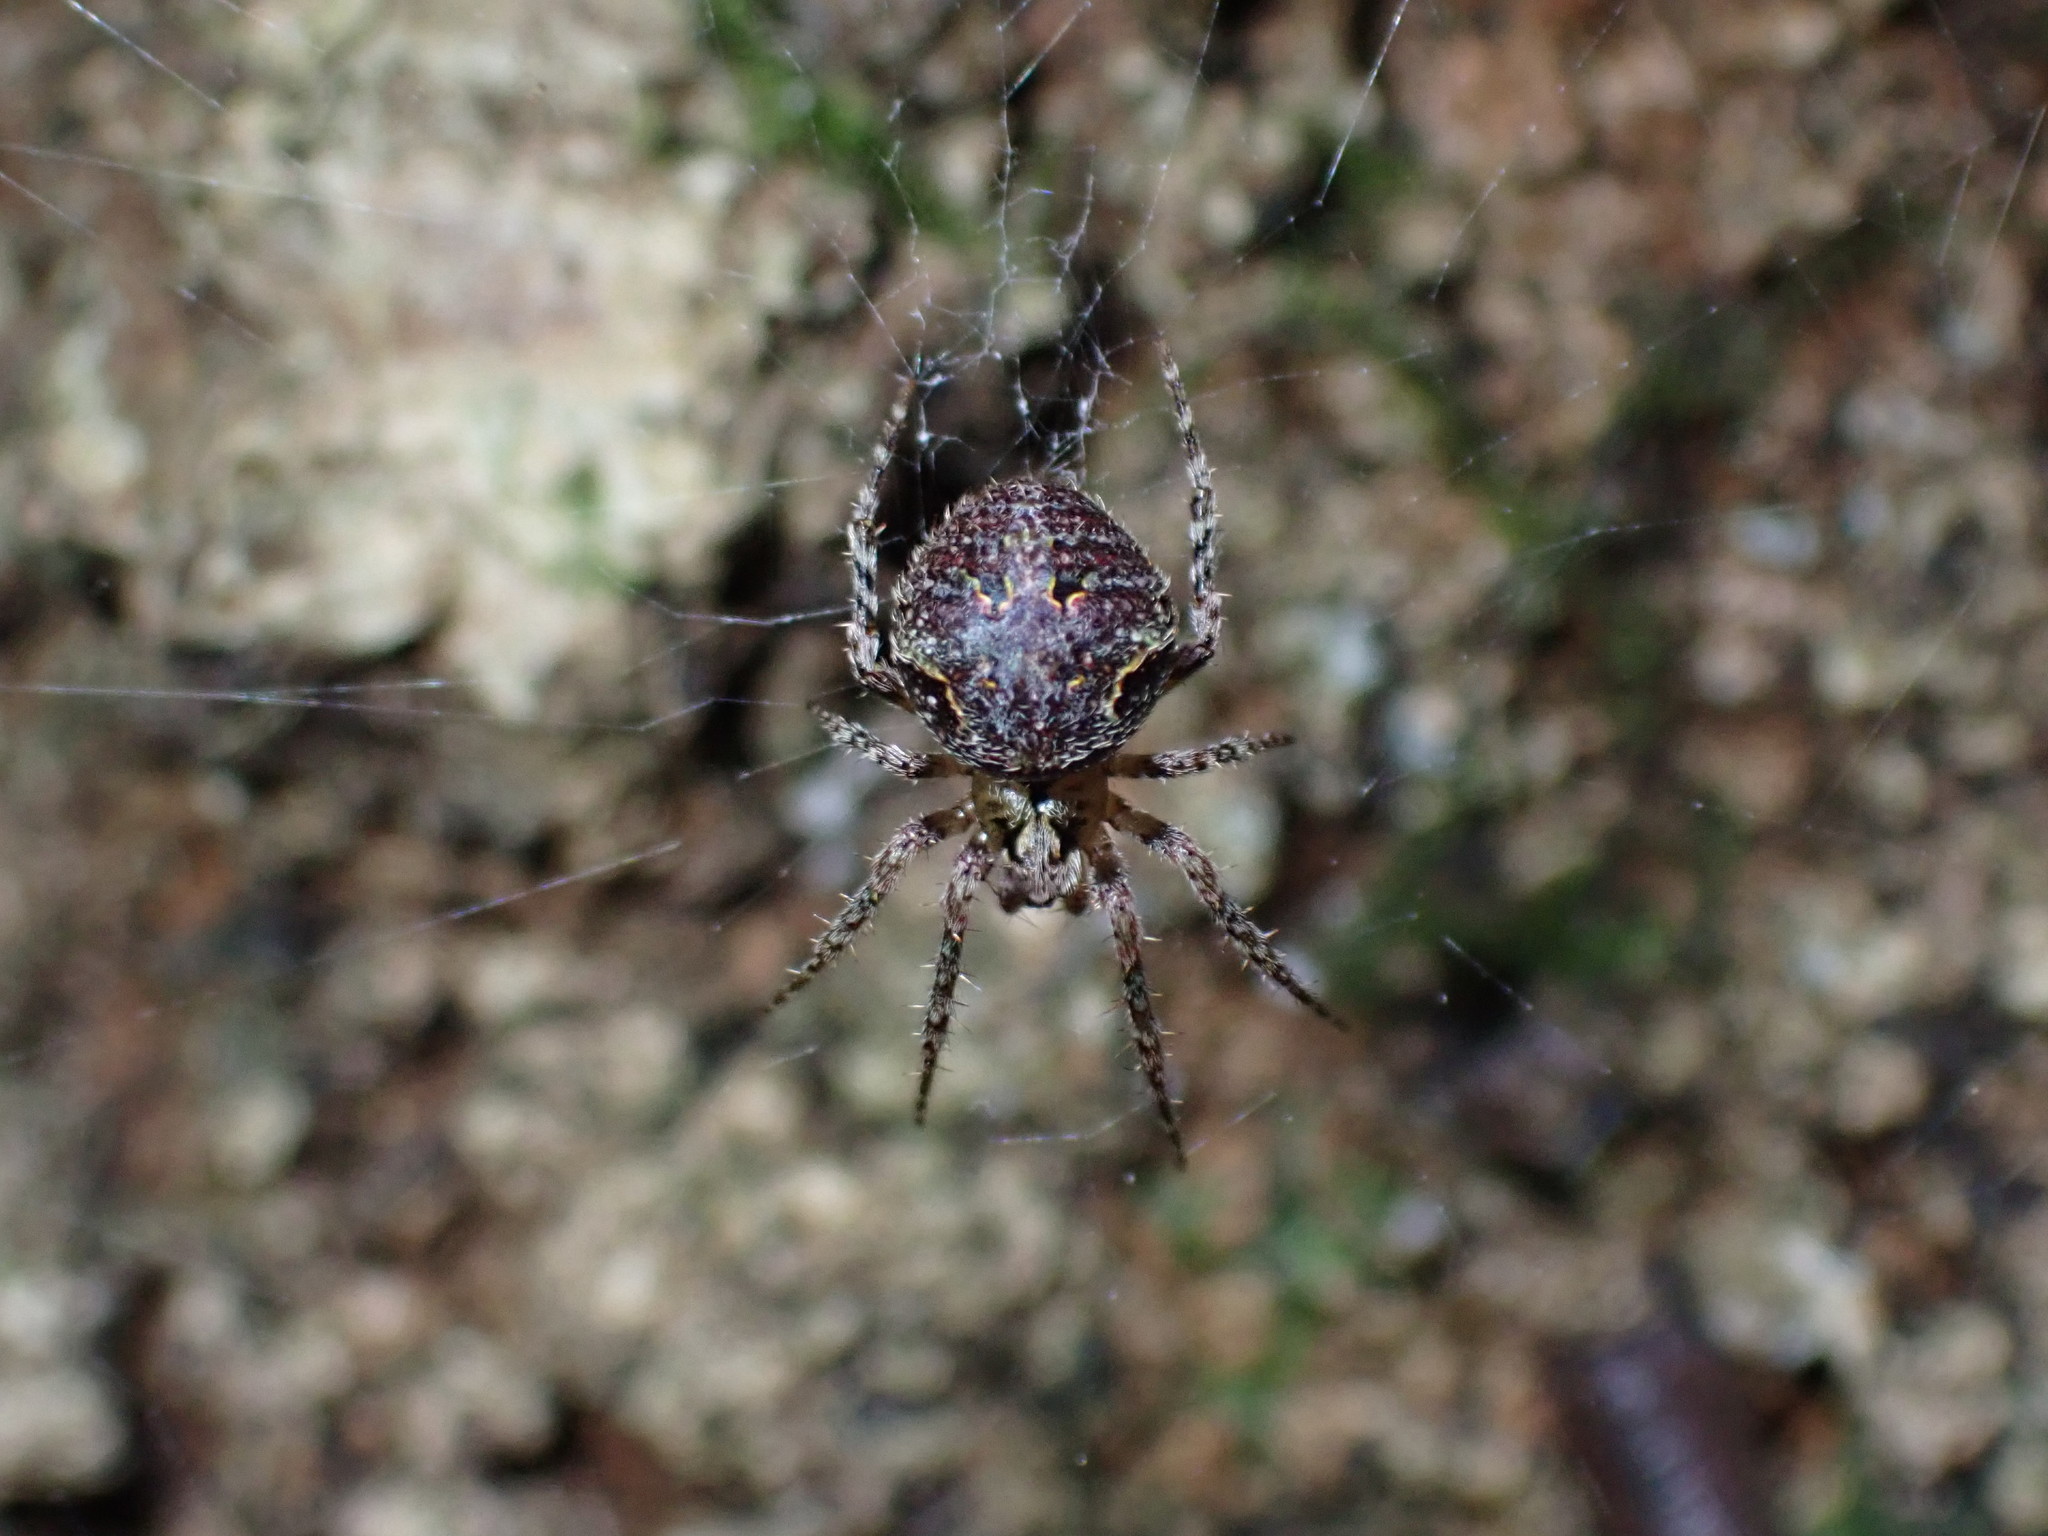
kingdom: Animalia
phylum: Arthropoda
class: Arachnida
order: Araneae
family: Araneidae
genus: Cryptaranea
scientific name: Cryptaranea atrihastula
